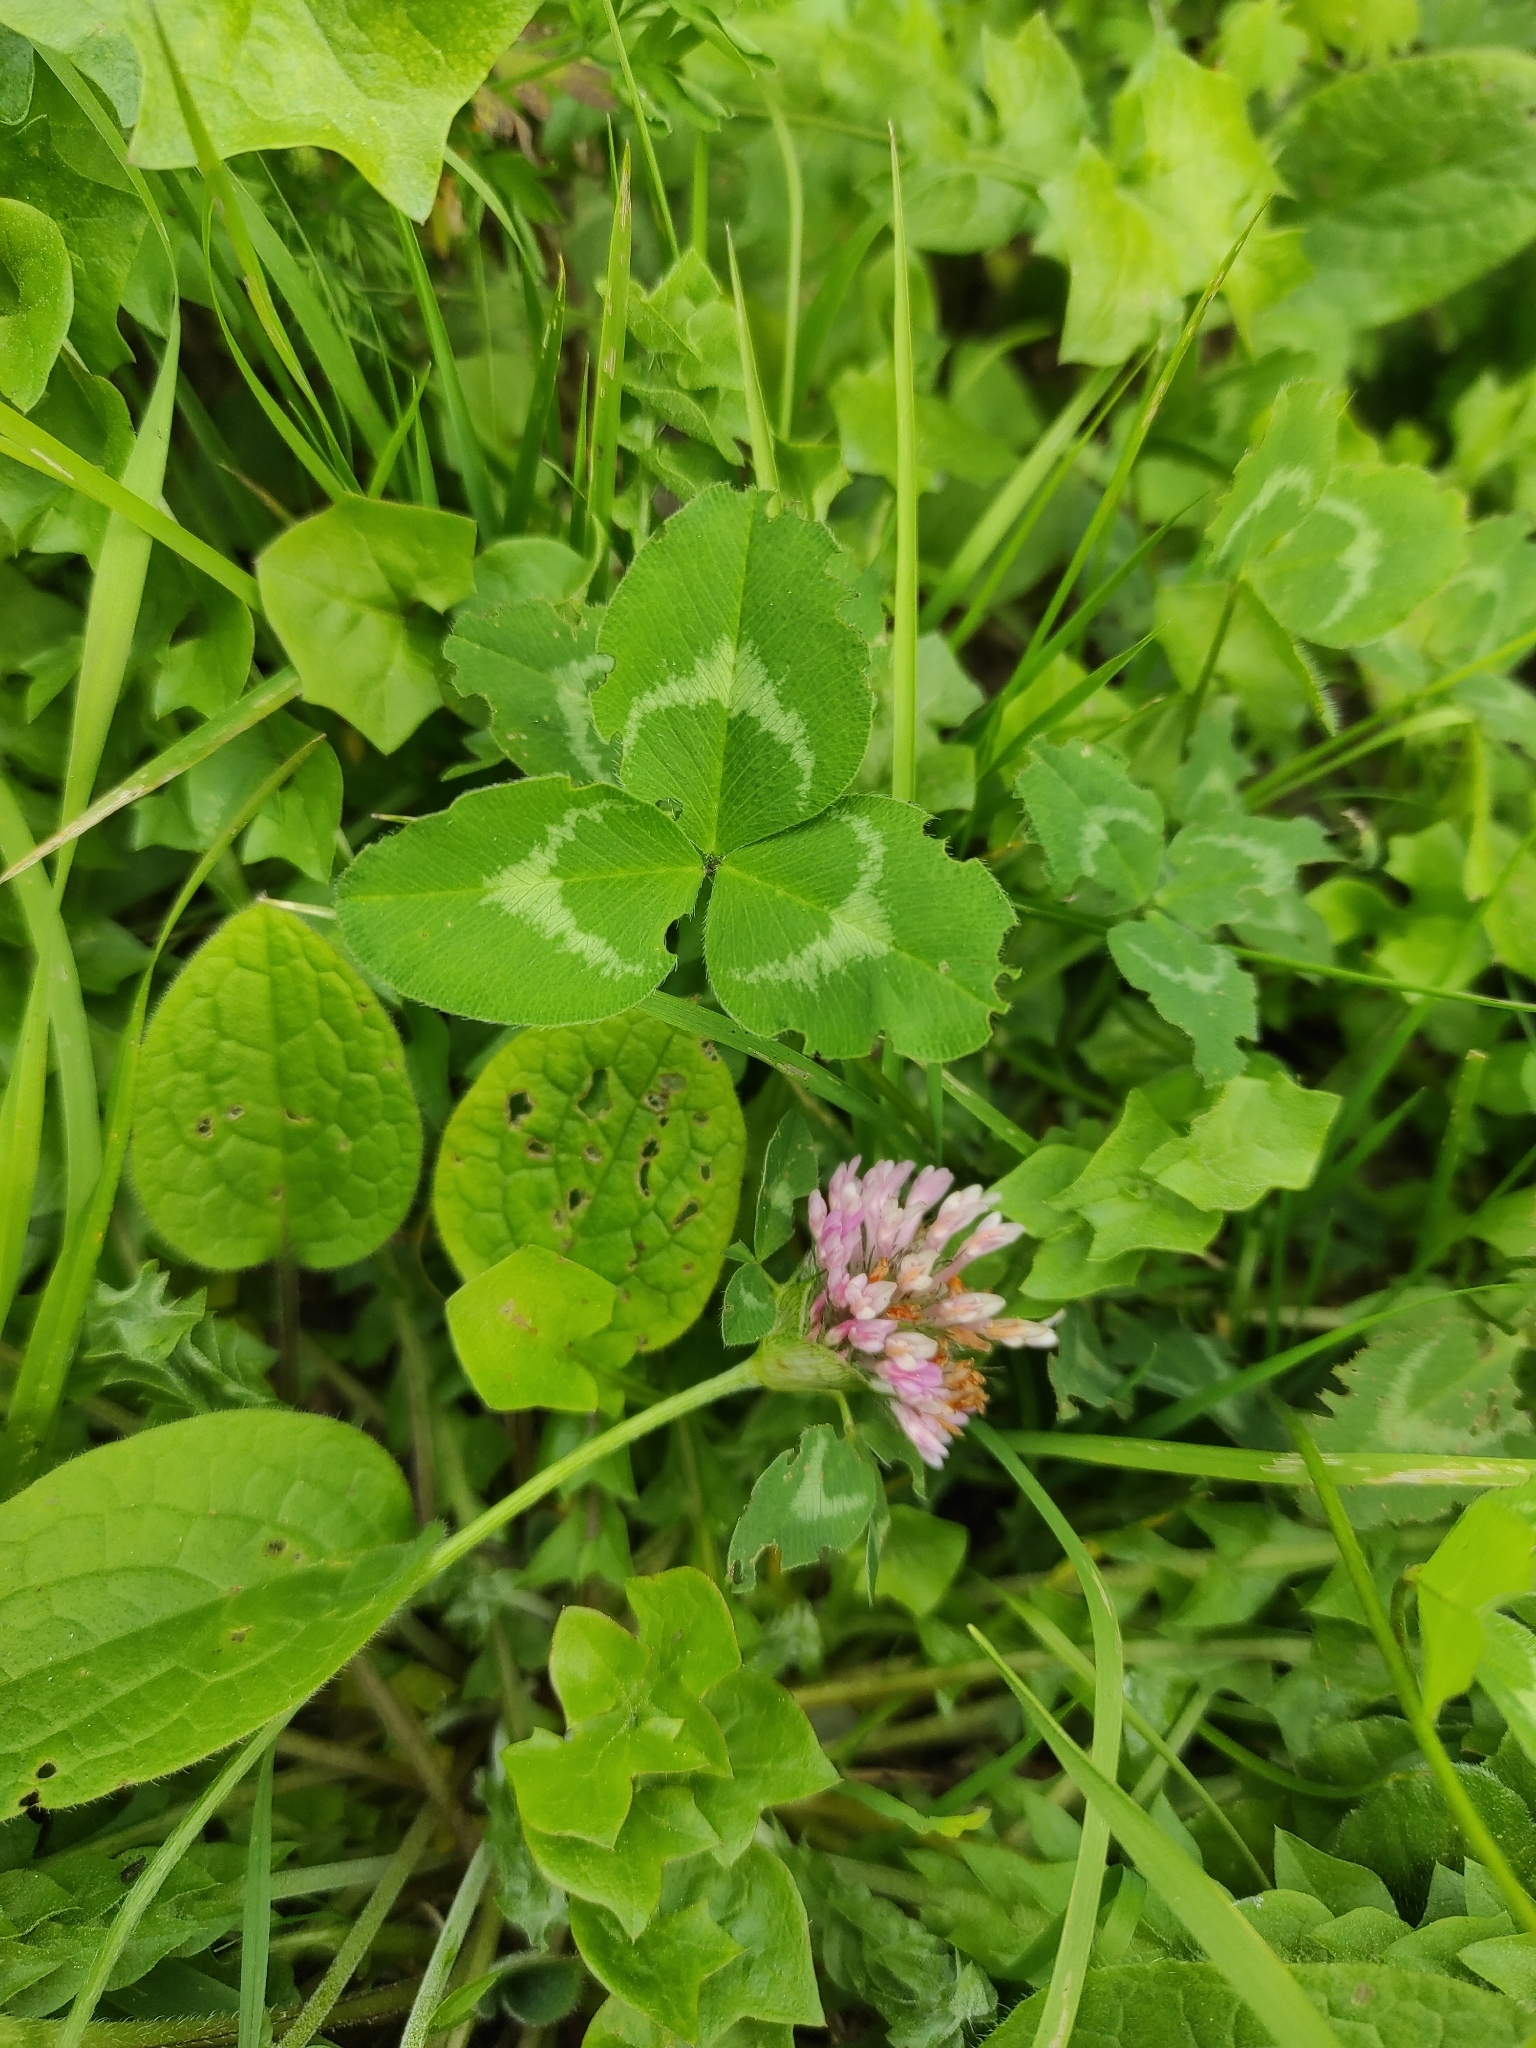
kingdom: Plantae
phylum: Tracheophyta
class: Magnoliopsida
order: Fabales
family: Fabaceae
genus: Trifolium
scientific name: Trifolium pratense
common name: Red clover
